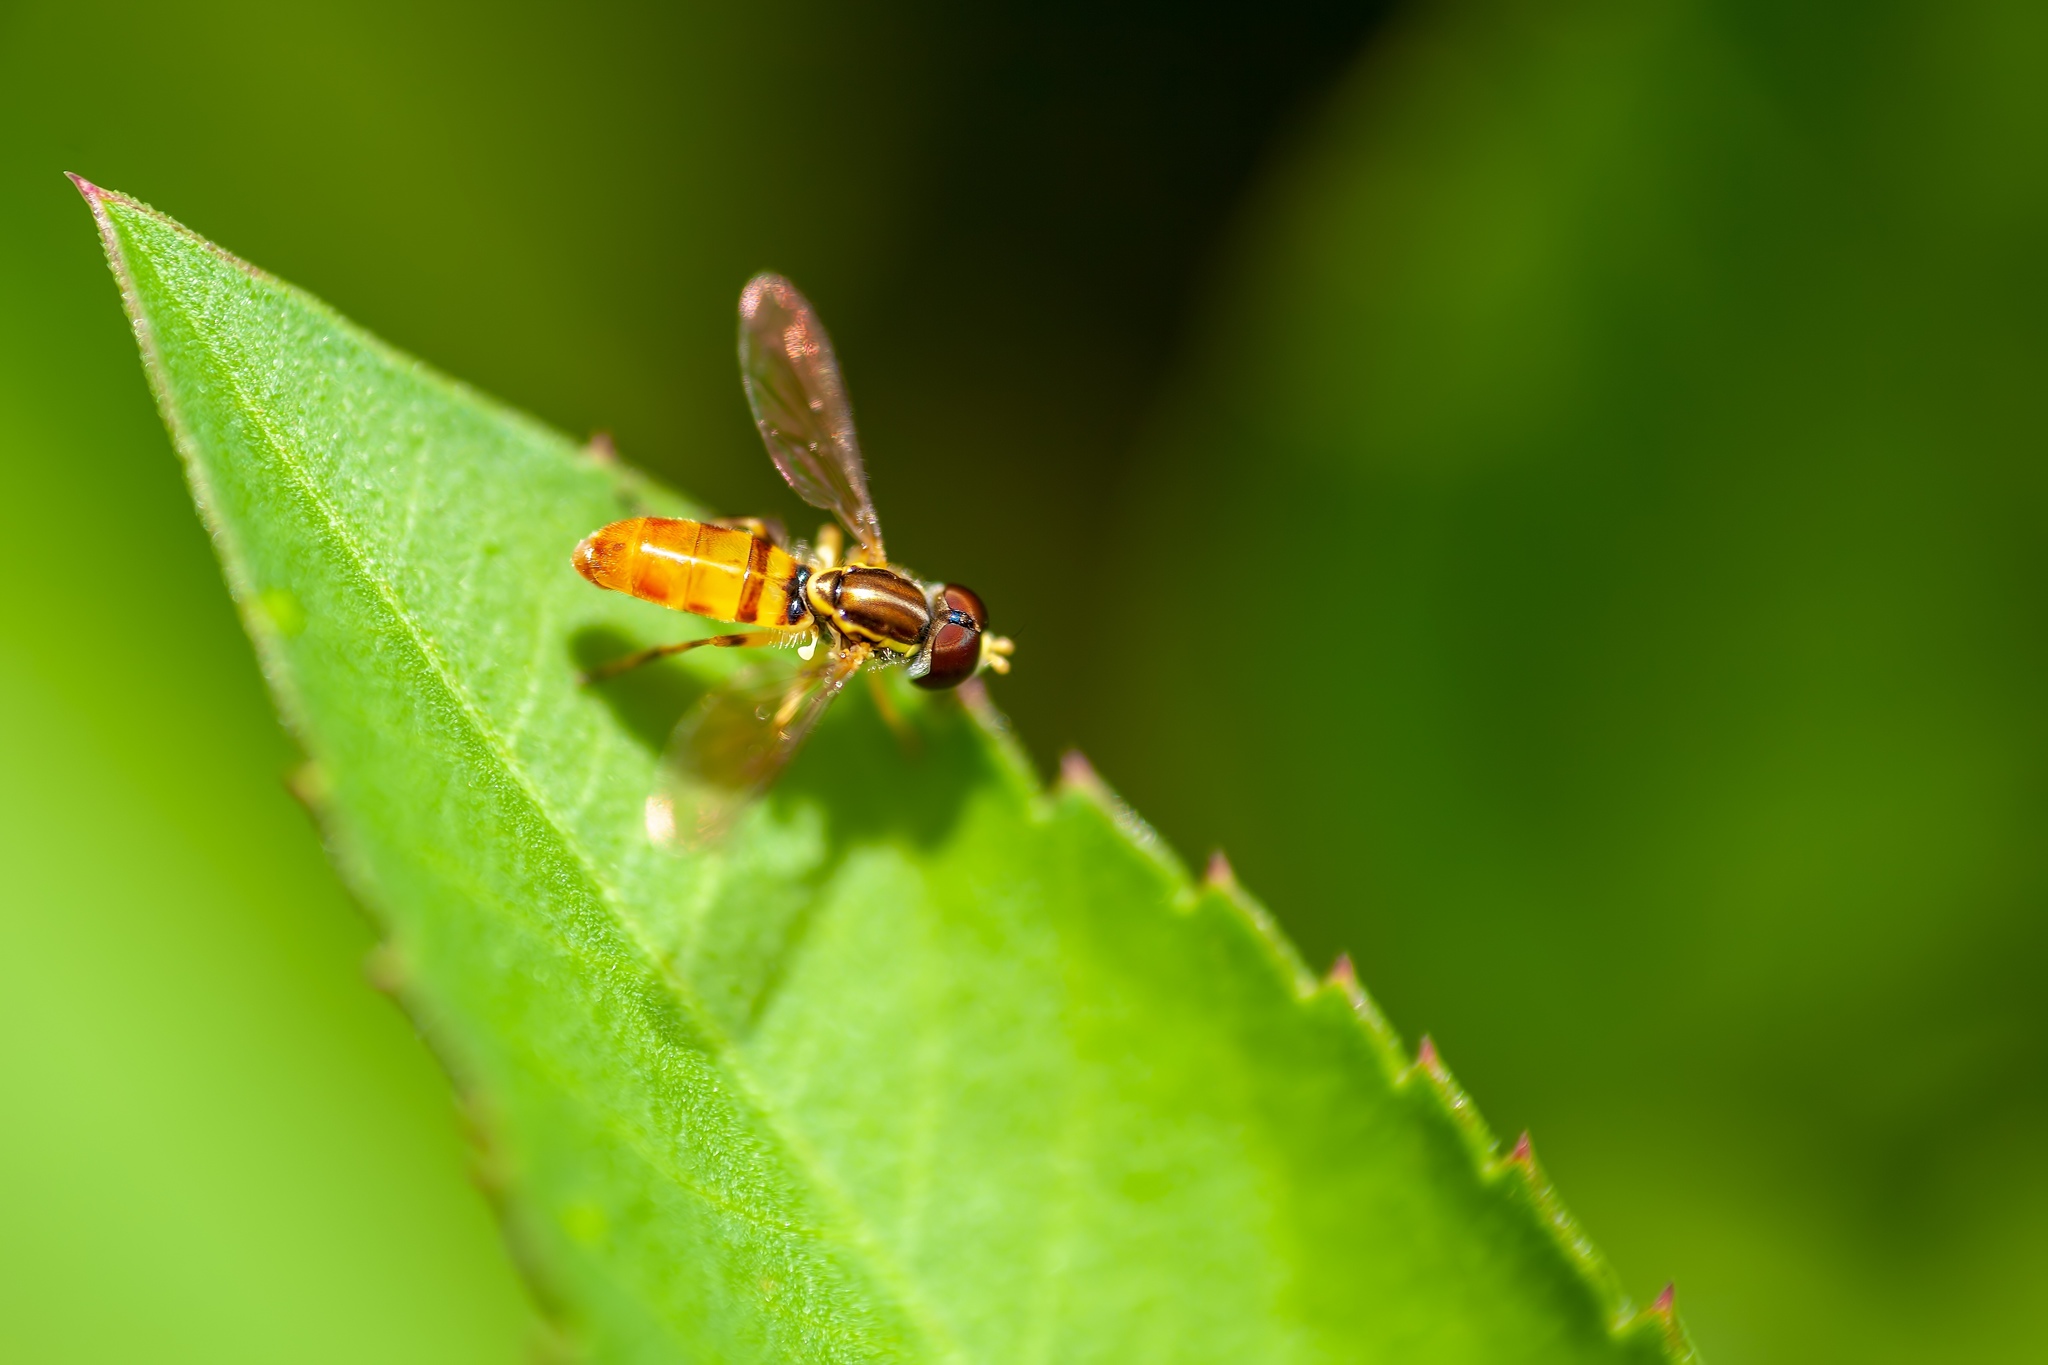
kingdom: Animalia
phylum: Arthropoda
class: Insecta
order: Diptera
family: Syrphidae
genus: Toxomerus
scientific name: Toxomerus floralis
